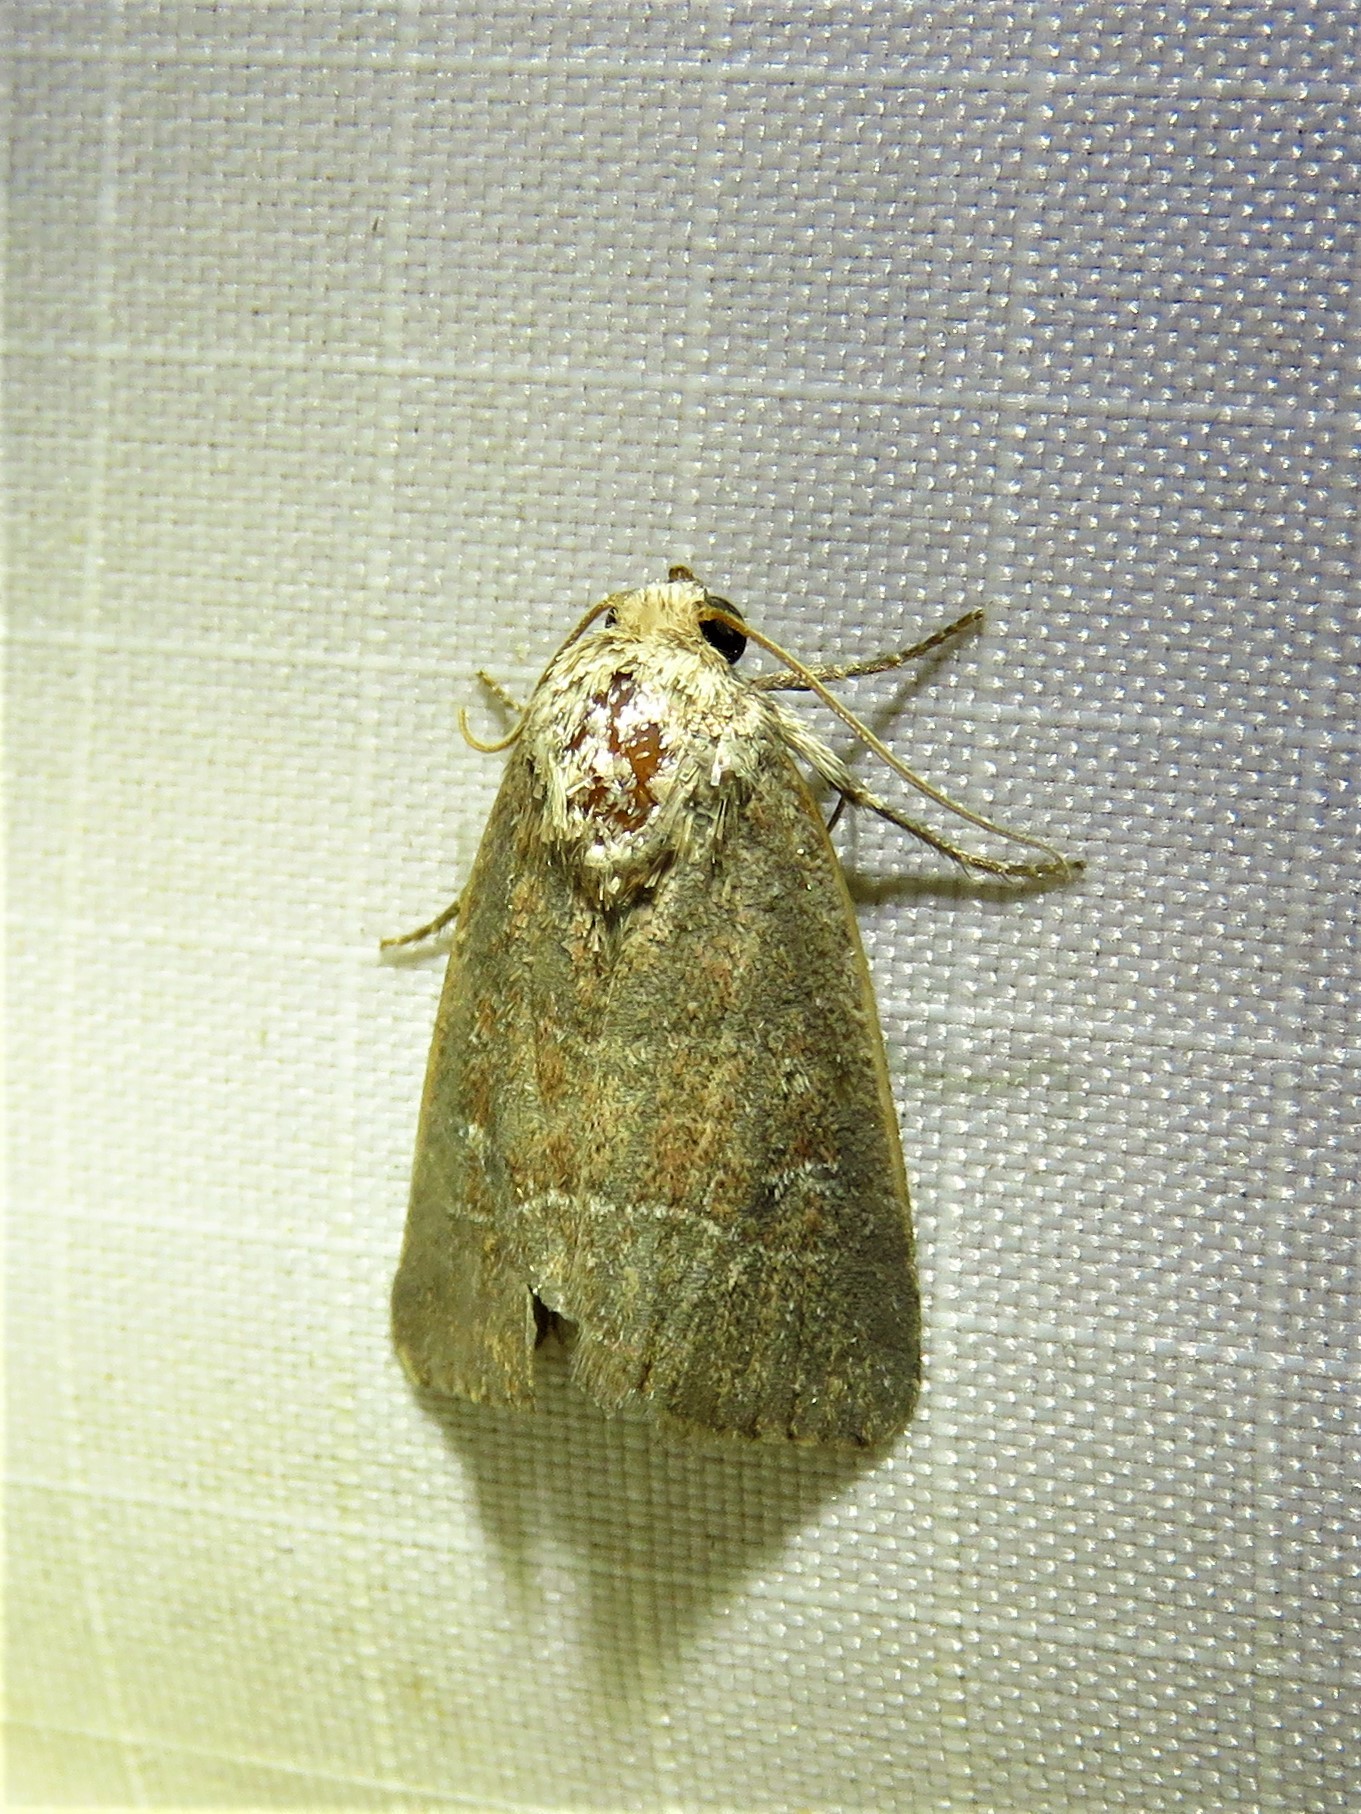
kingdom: Animalia
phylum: Arthropoda
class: Insecta
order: Lepidoptera
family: Noctuidae
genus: Elaphria
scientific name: Elaphria grata
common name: Grateful midget moth
